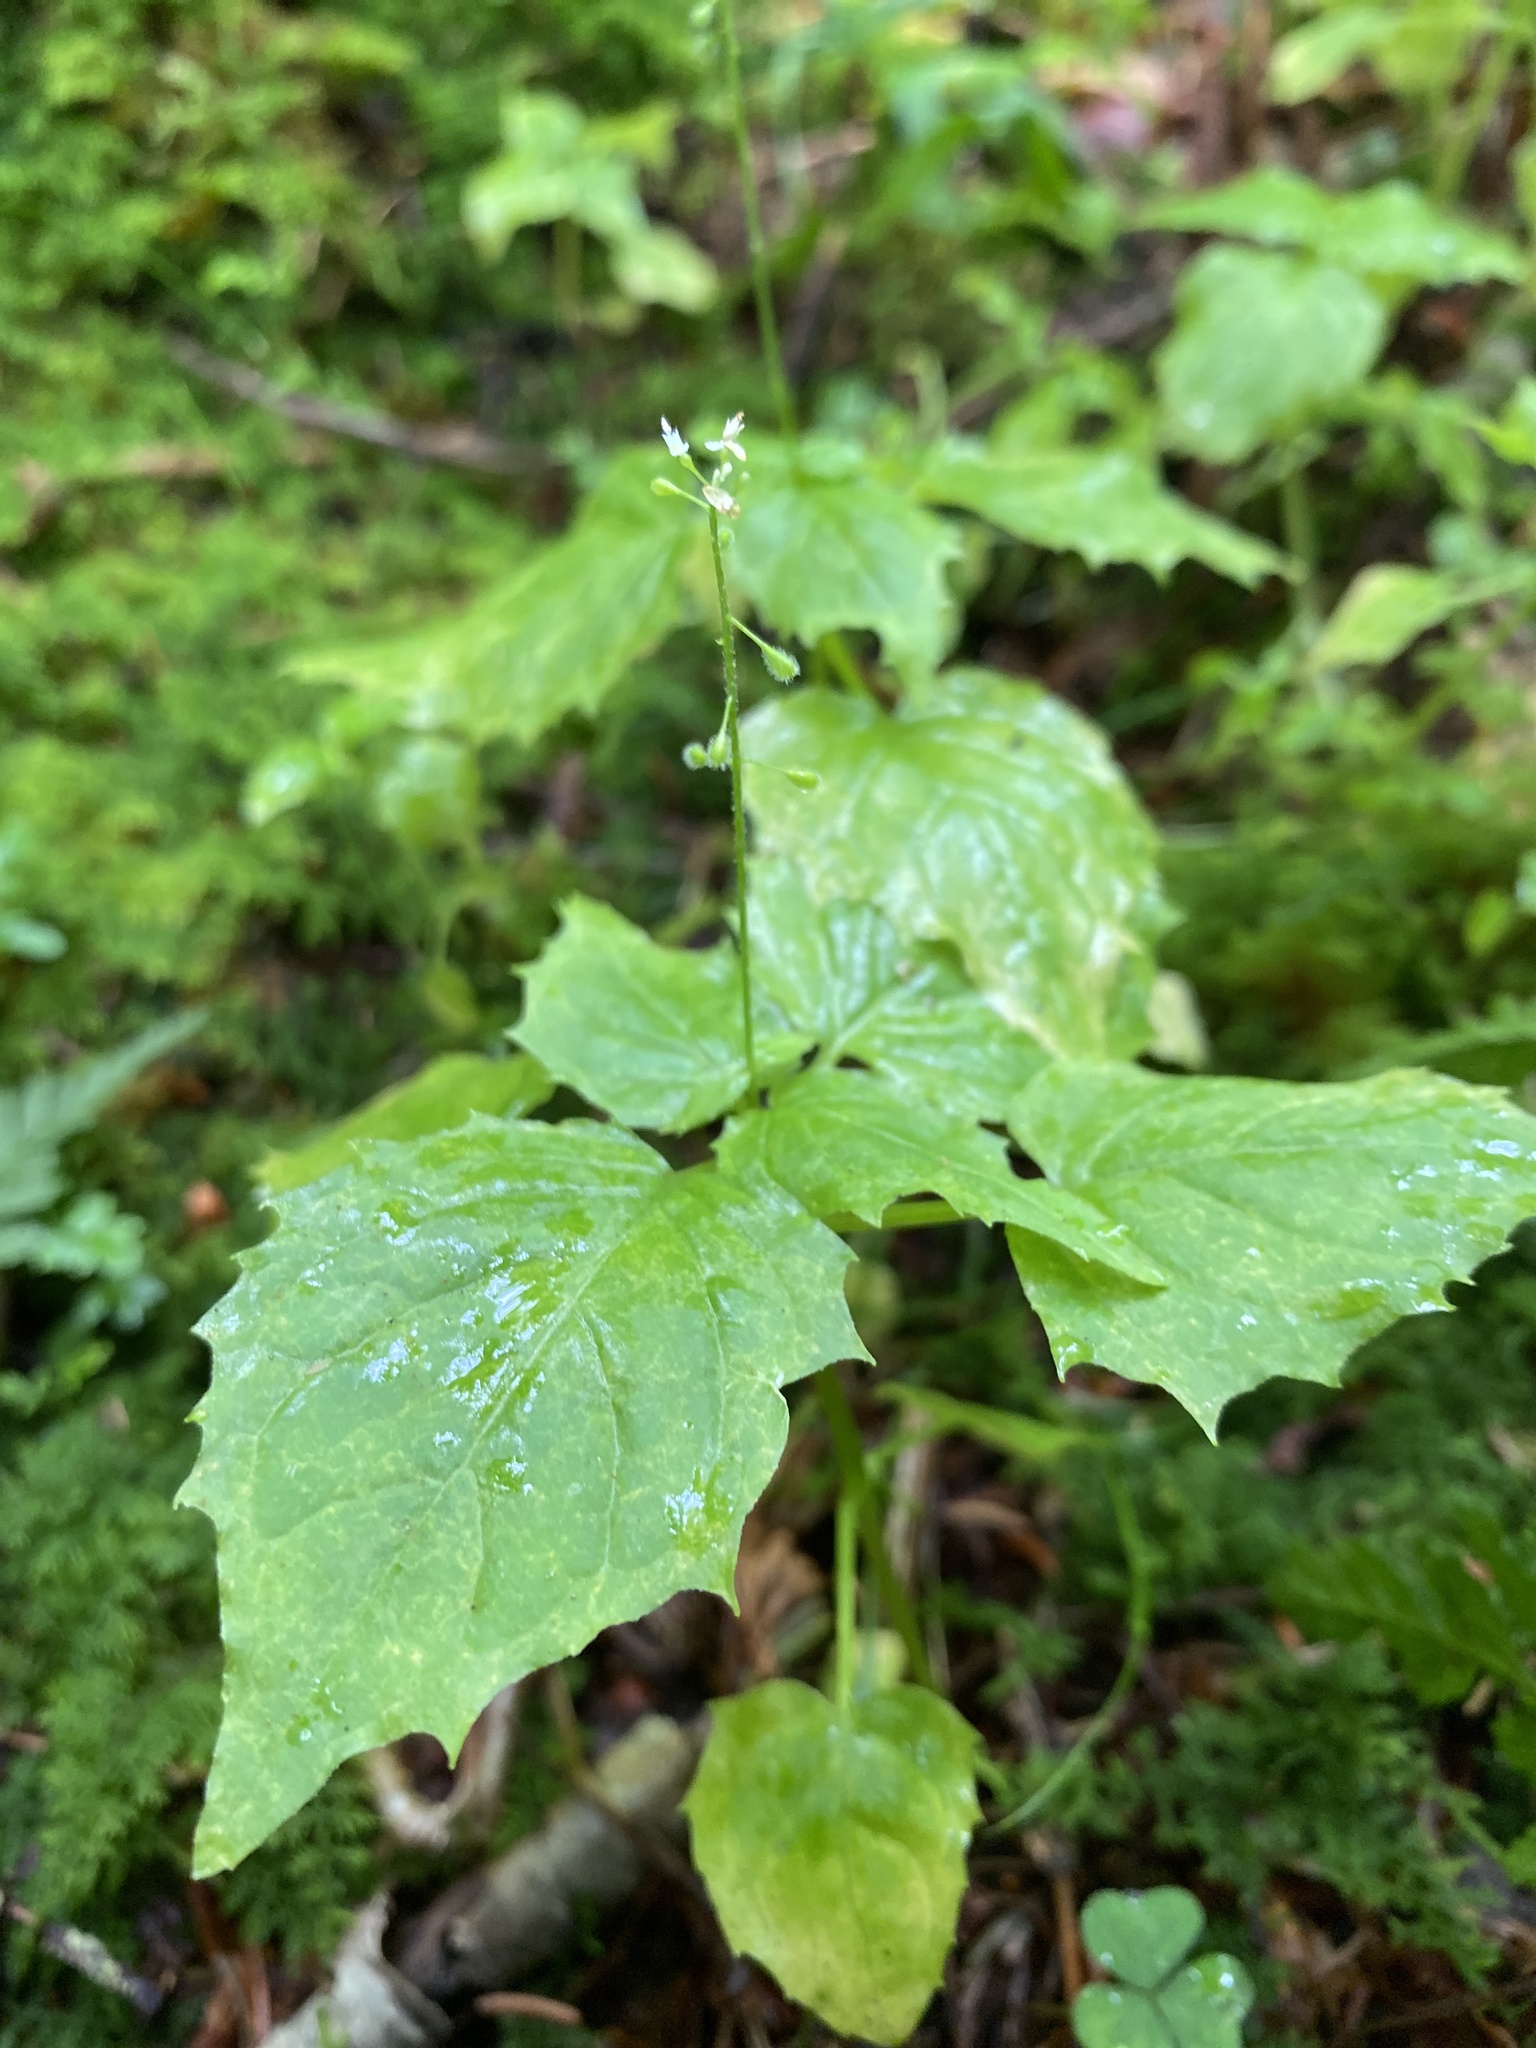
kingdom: Plantae
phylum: Tracheophyta
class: Magnoliopsida
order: Myrtales
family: Onagraceae
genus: Circaea
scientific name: Circaea alpina
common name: Alpine enchanter's-nightshade
